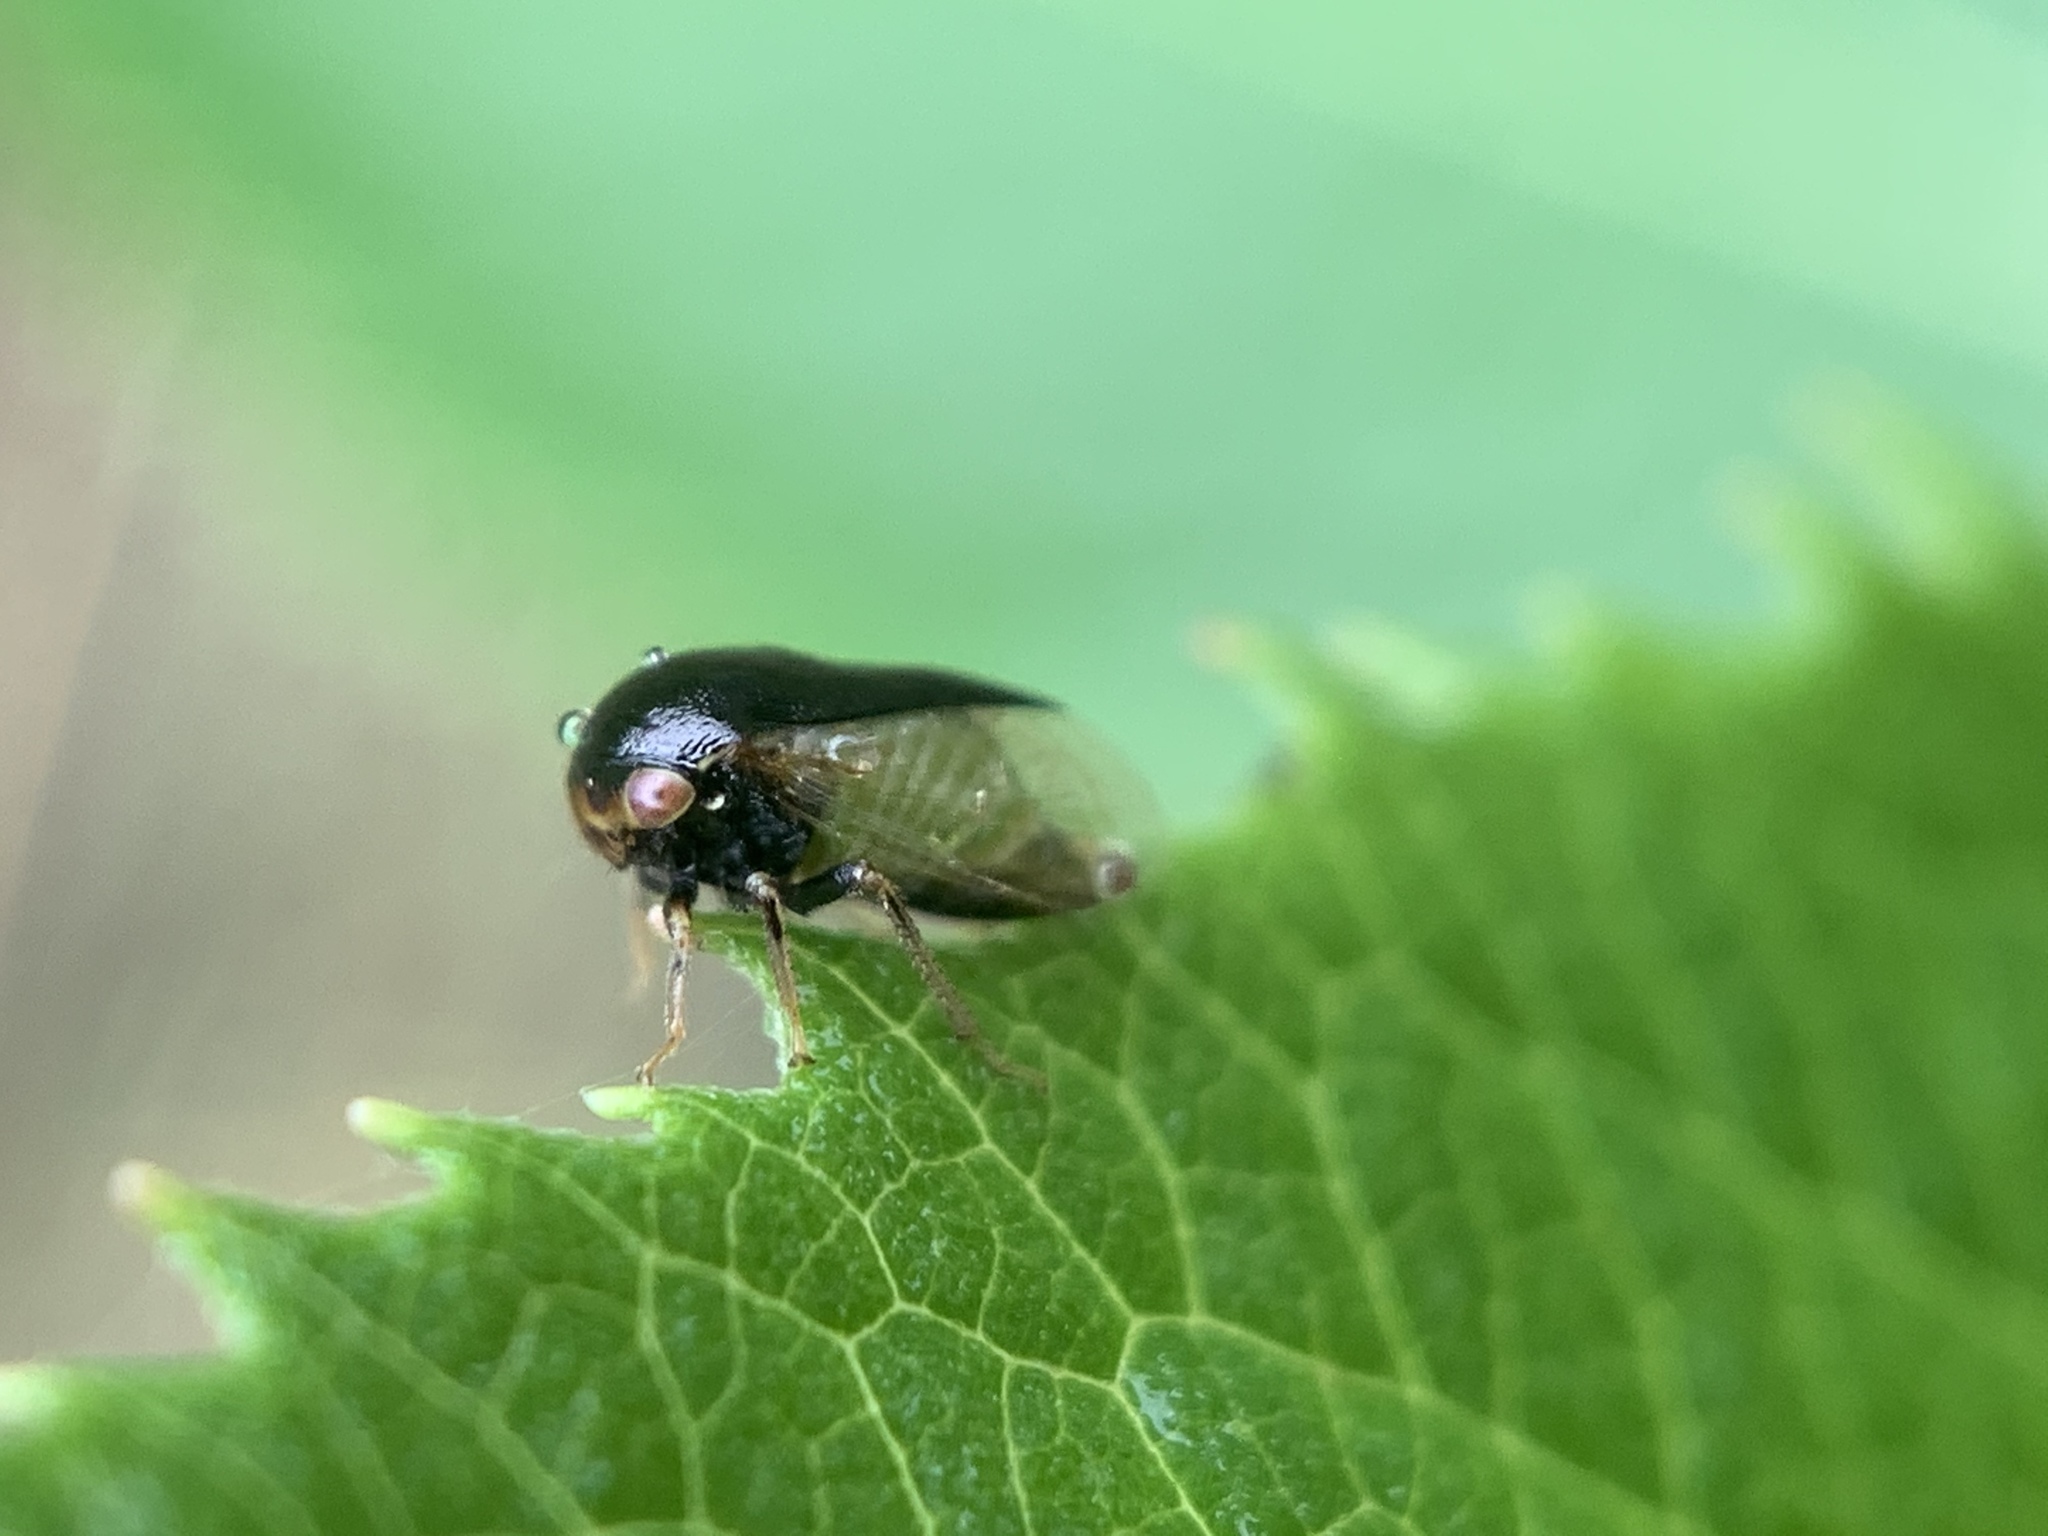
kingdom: Animalia
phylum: Arthropoda
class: Insecta
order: Hemiptera
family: Membracidae
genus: Micrutalis
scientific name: Micrutalis calva
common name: Honeylocust treehopper
